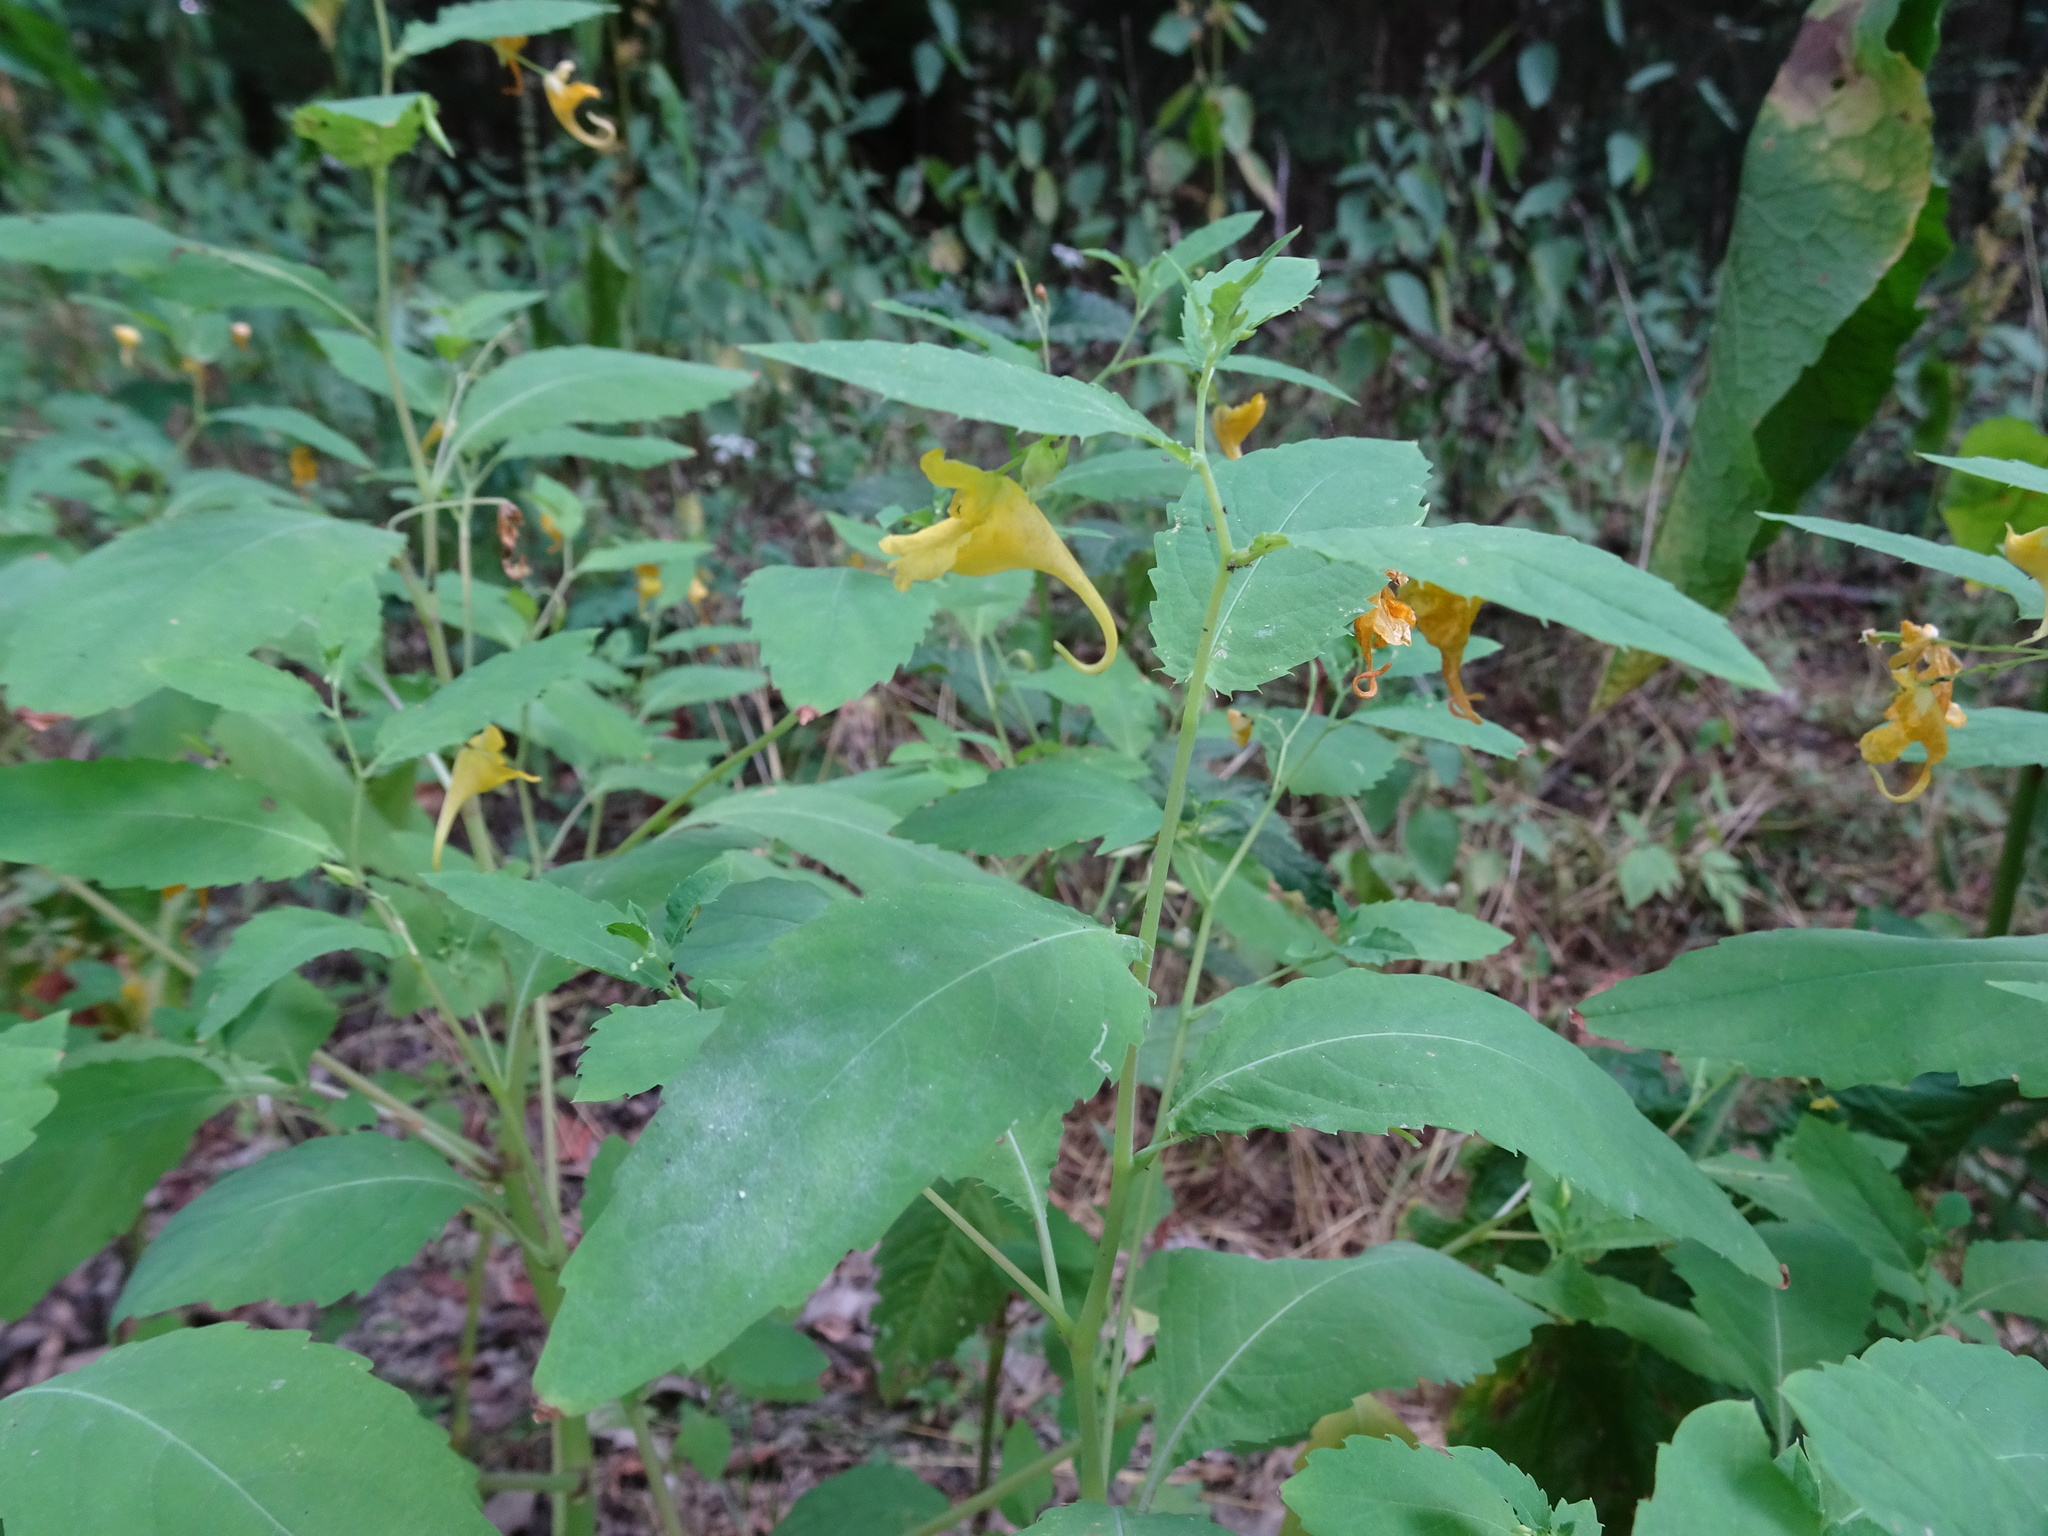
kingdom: Plantae
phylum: Tracheophyta
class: Magnoliopsida
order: Ericales
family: Balsaminaceae
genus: Impatiens
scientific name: Impatiens noli-tangere
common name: Touch-me-not balsam
